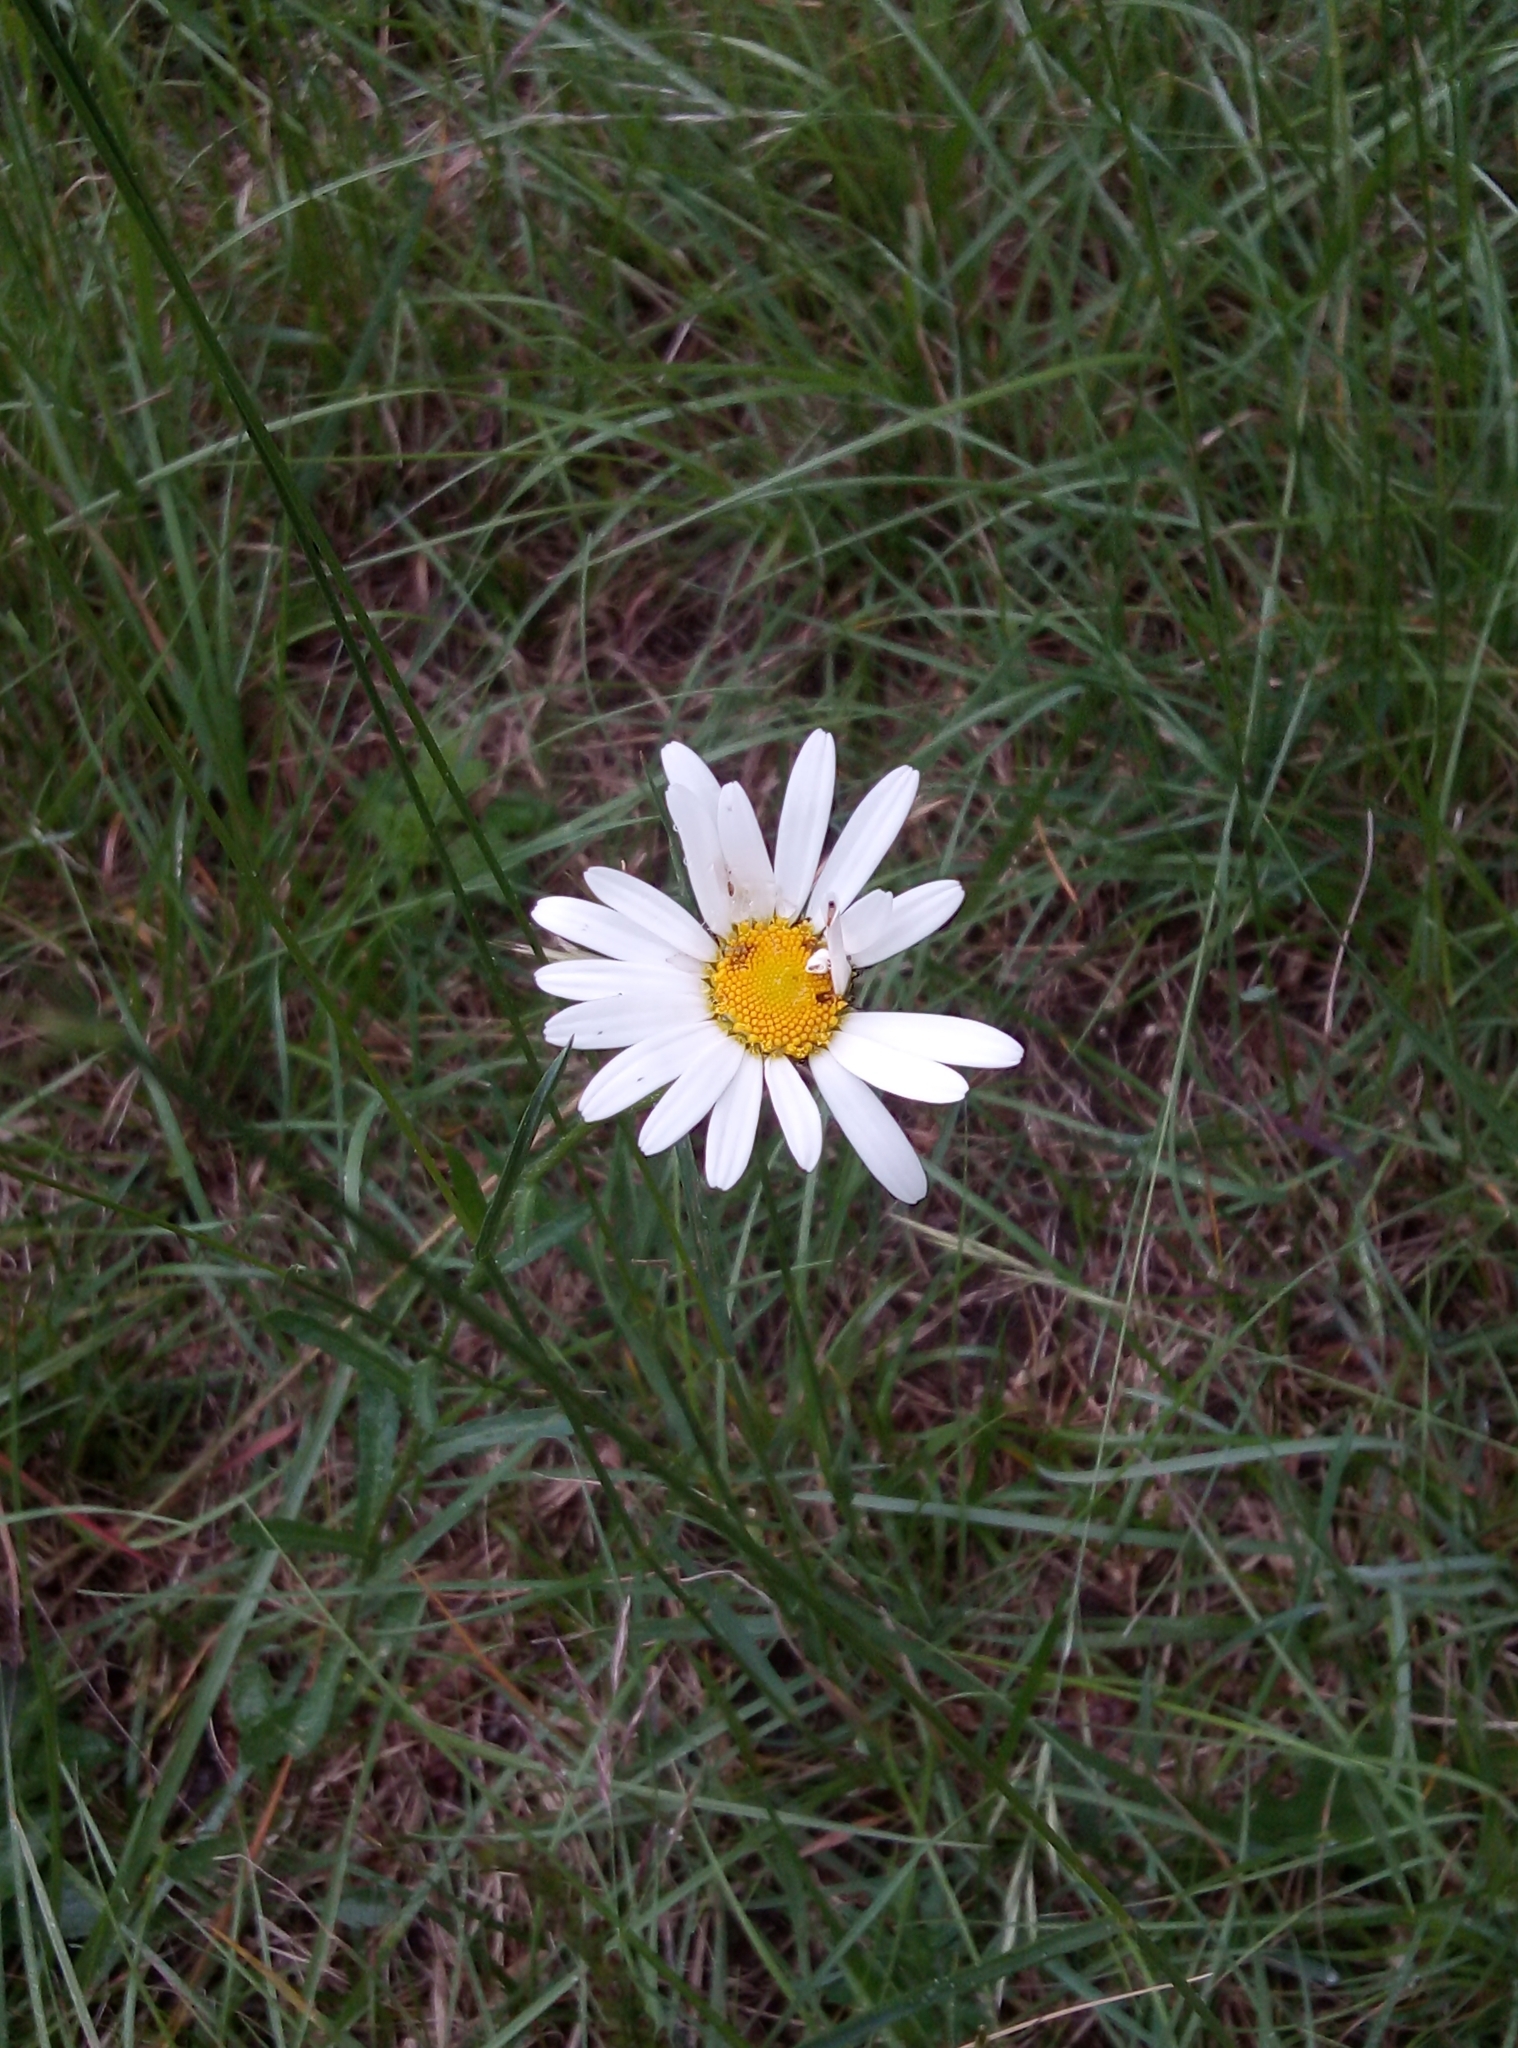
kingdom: Plantae
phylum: Tracheophyta
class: Magnoliopsida
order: Asterales
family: Asteraceae
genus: Leucanthemum
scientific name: Leucanthemum vulgare
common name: Oxeye daisy
